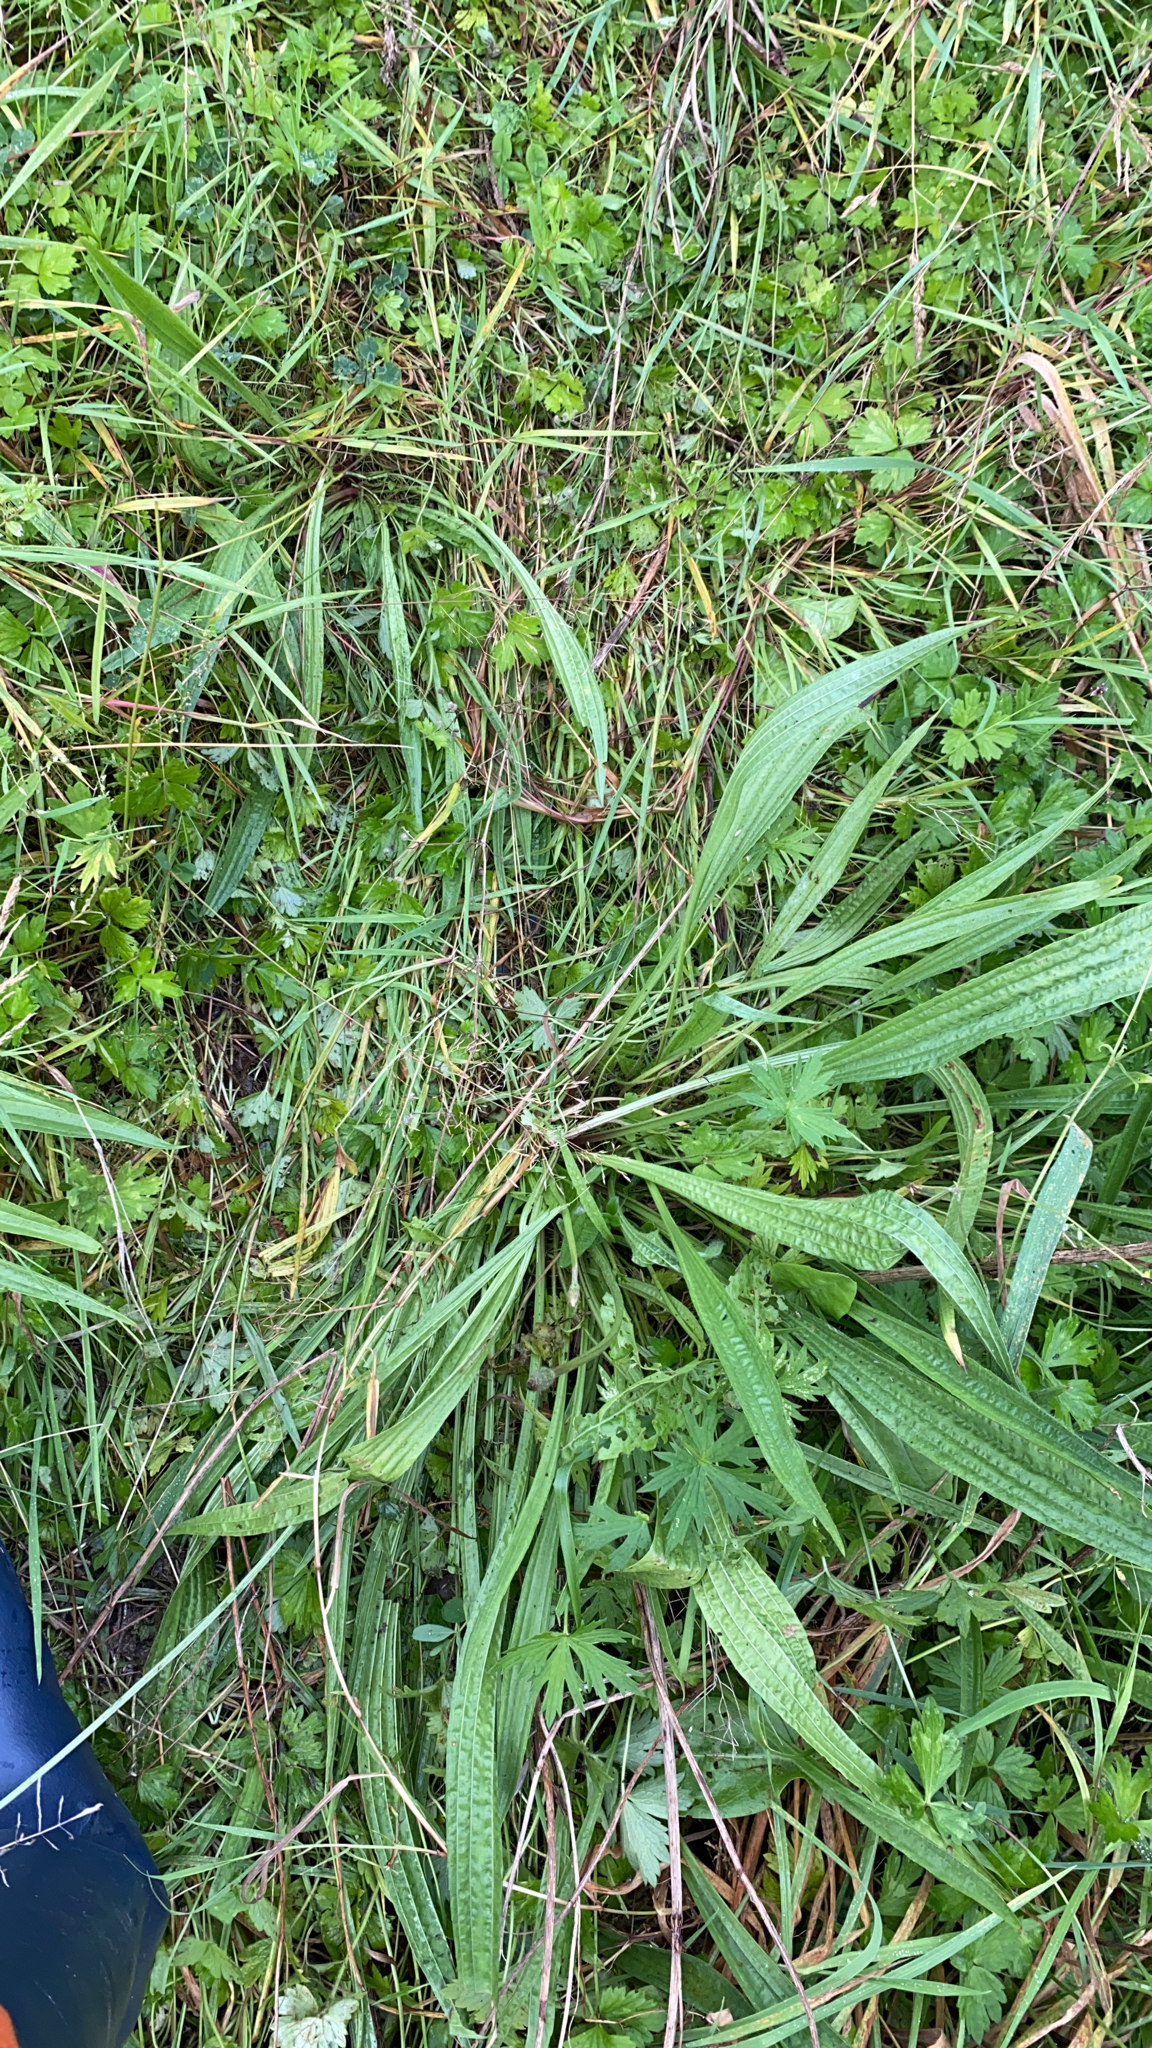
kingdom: Plantae
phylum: Tracheophyta
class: Magnoliopsida
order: Lamiales
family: Plantaginaceae
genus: Plantago
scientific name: Plantago lanceolata
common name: Ribwort plantain
